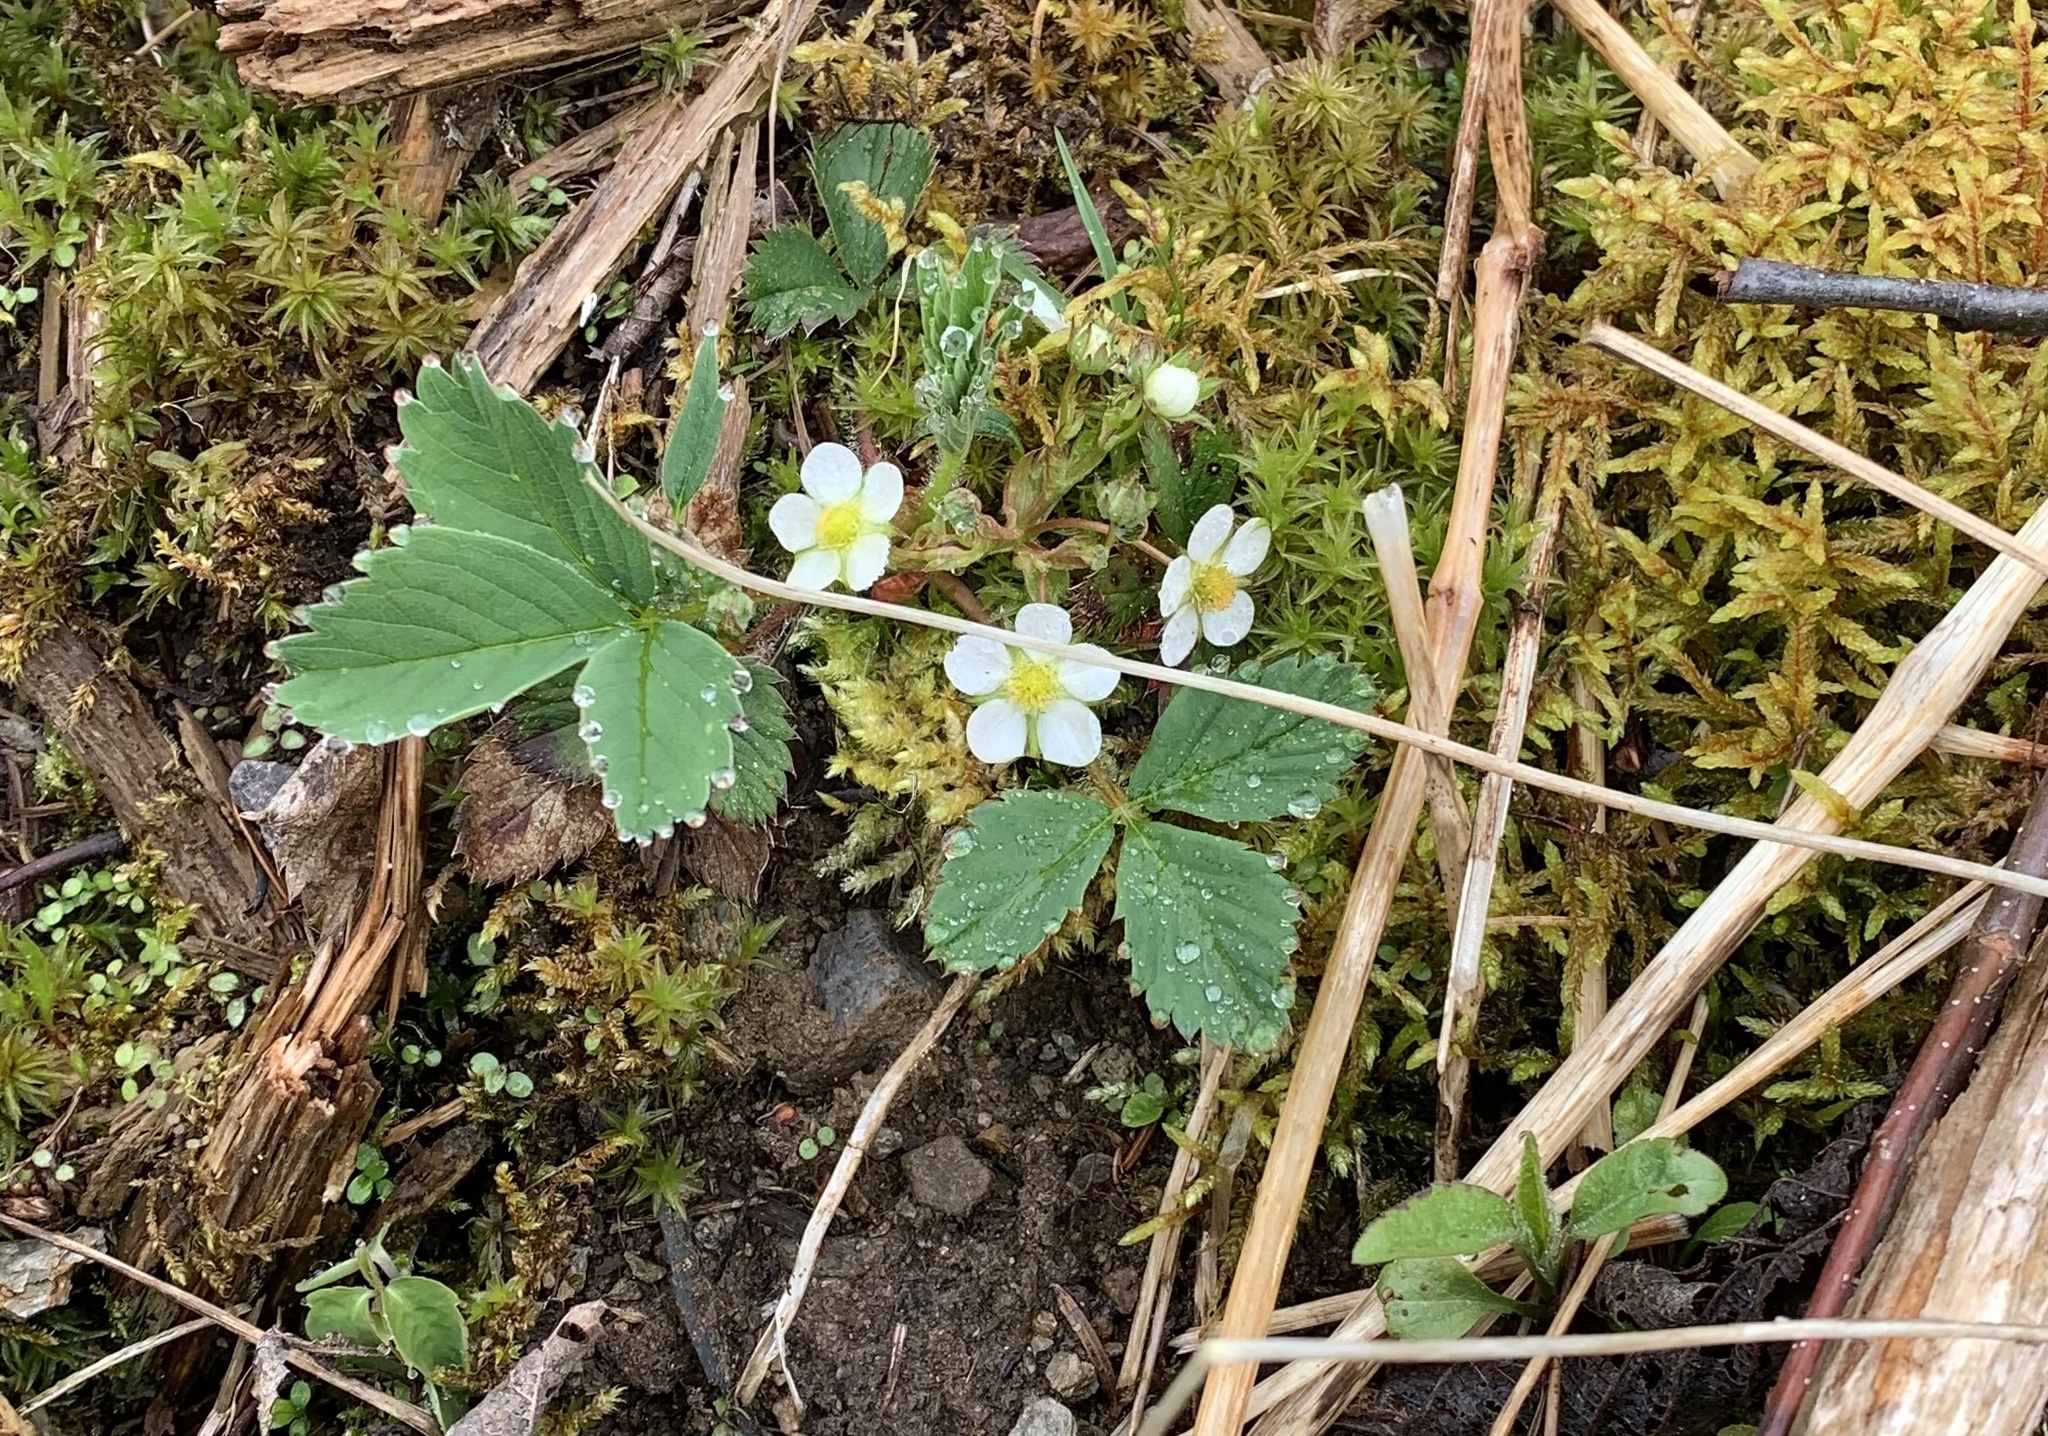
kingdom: Plantae
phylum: Tracheophyta
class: Magnoliopsida
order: Rosales
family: Rosaceae
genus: Fragaria
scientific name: Fragaria virginiana
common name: Thickleaved wild strawberry
